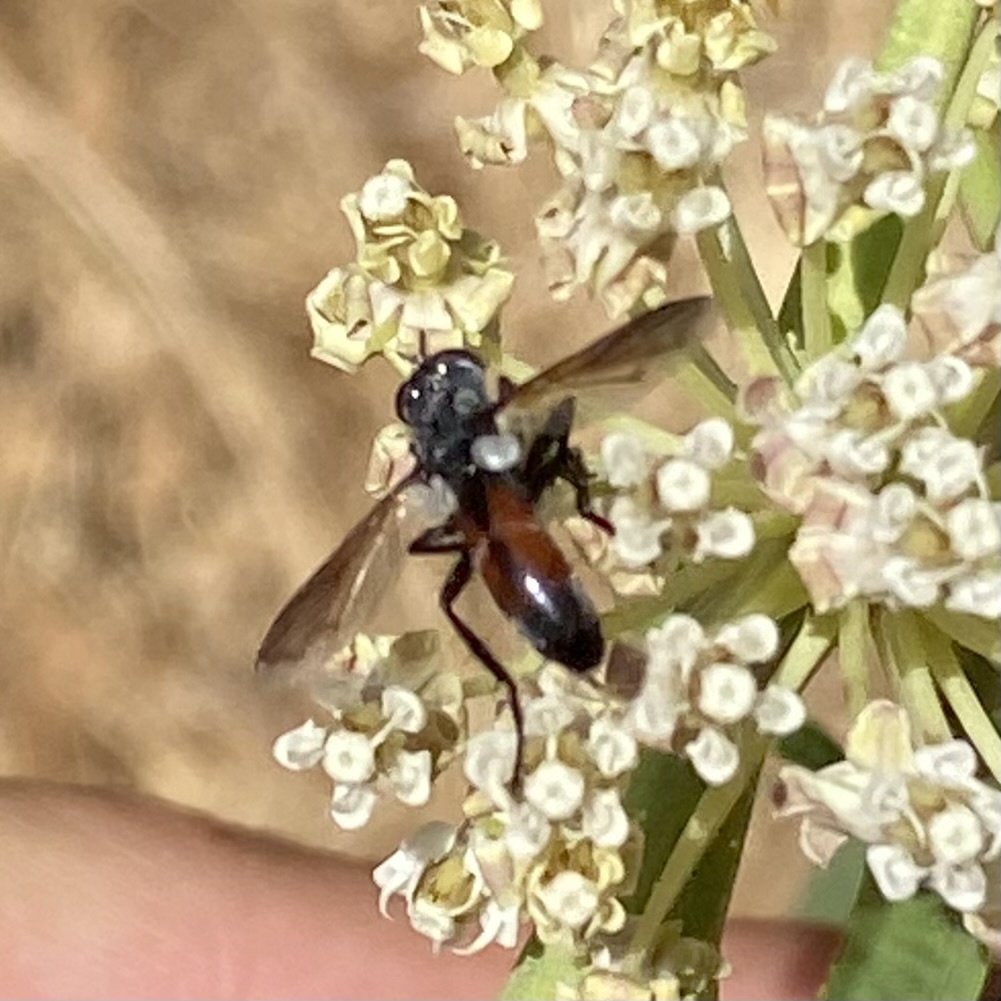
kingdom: Animalia
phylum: Arthropoda
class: Insecta
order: Diptera
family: Tachinidae
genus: Cylindromyia
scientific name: Cylindromyia
